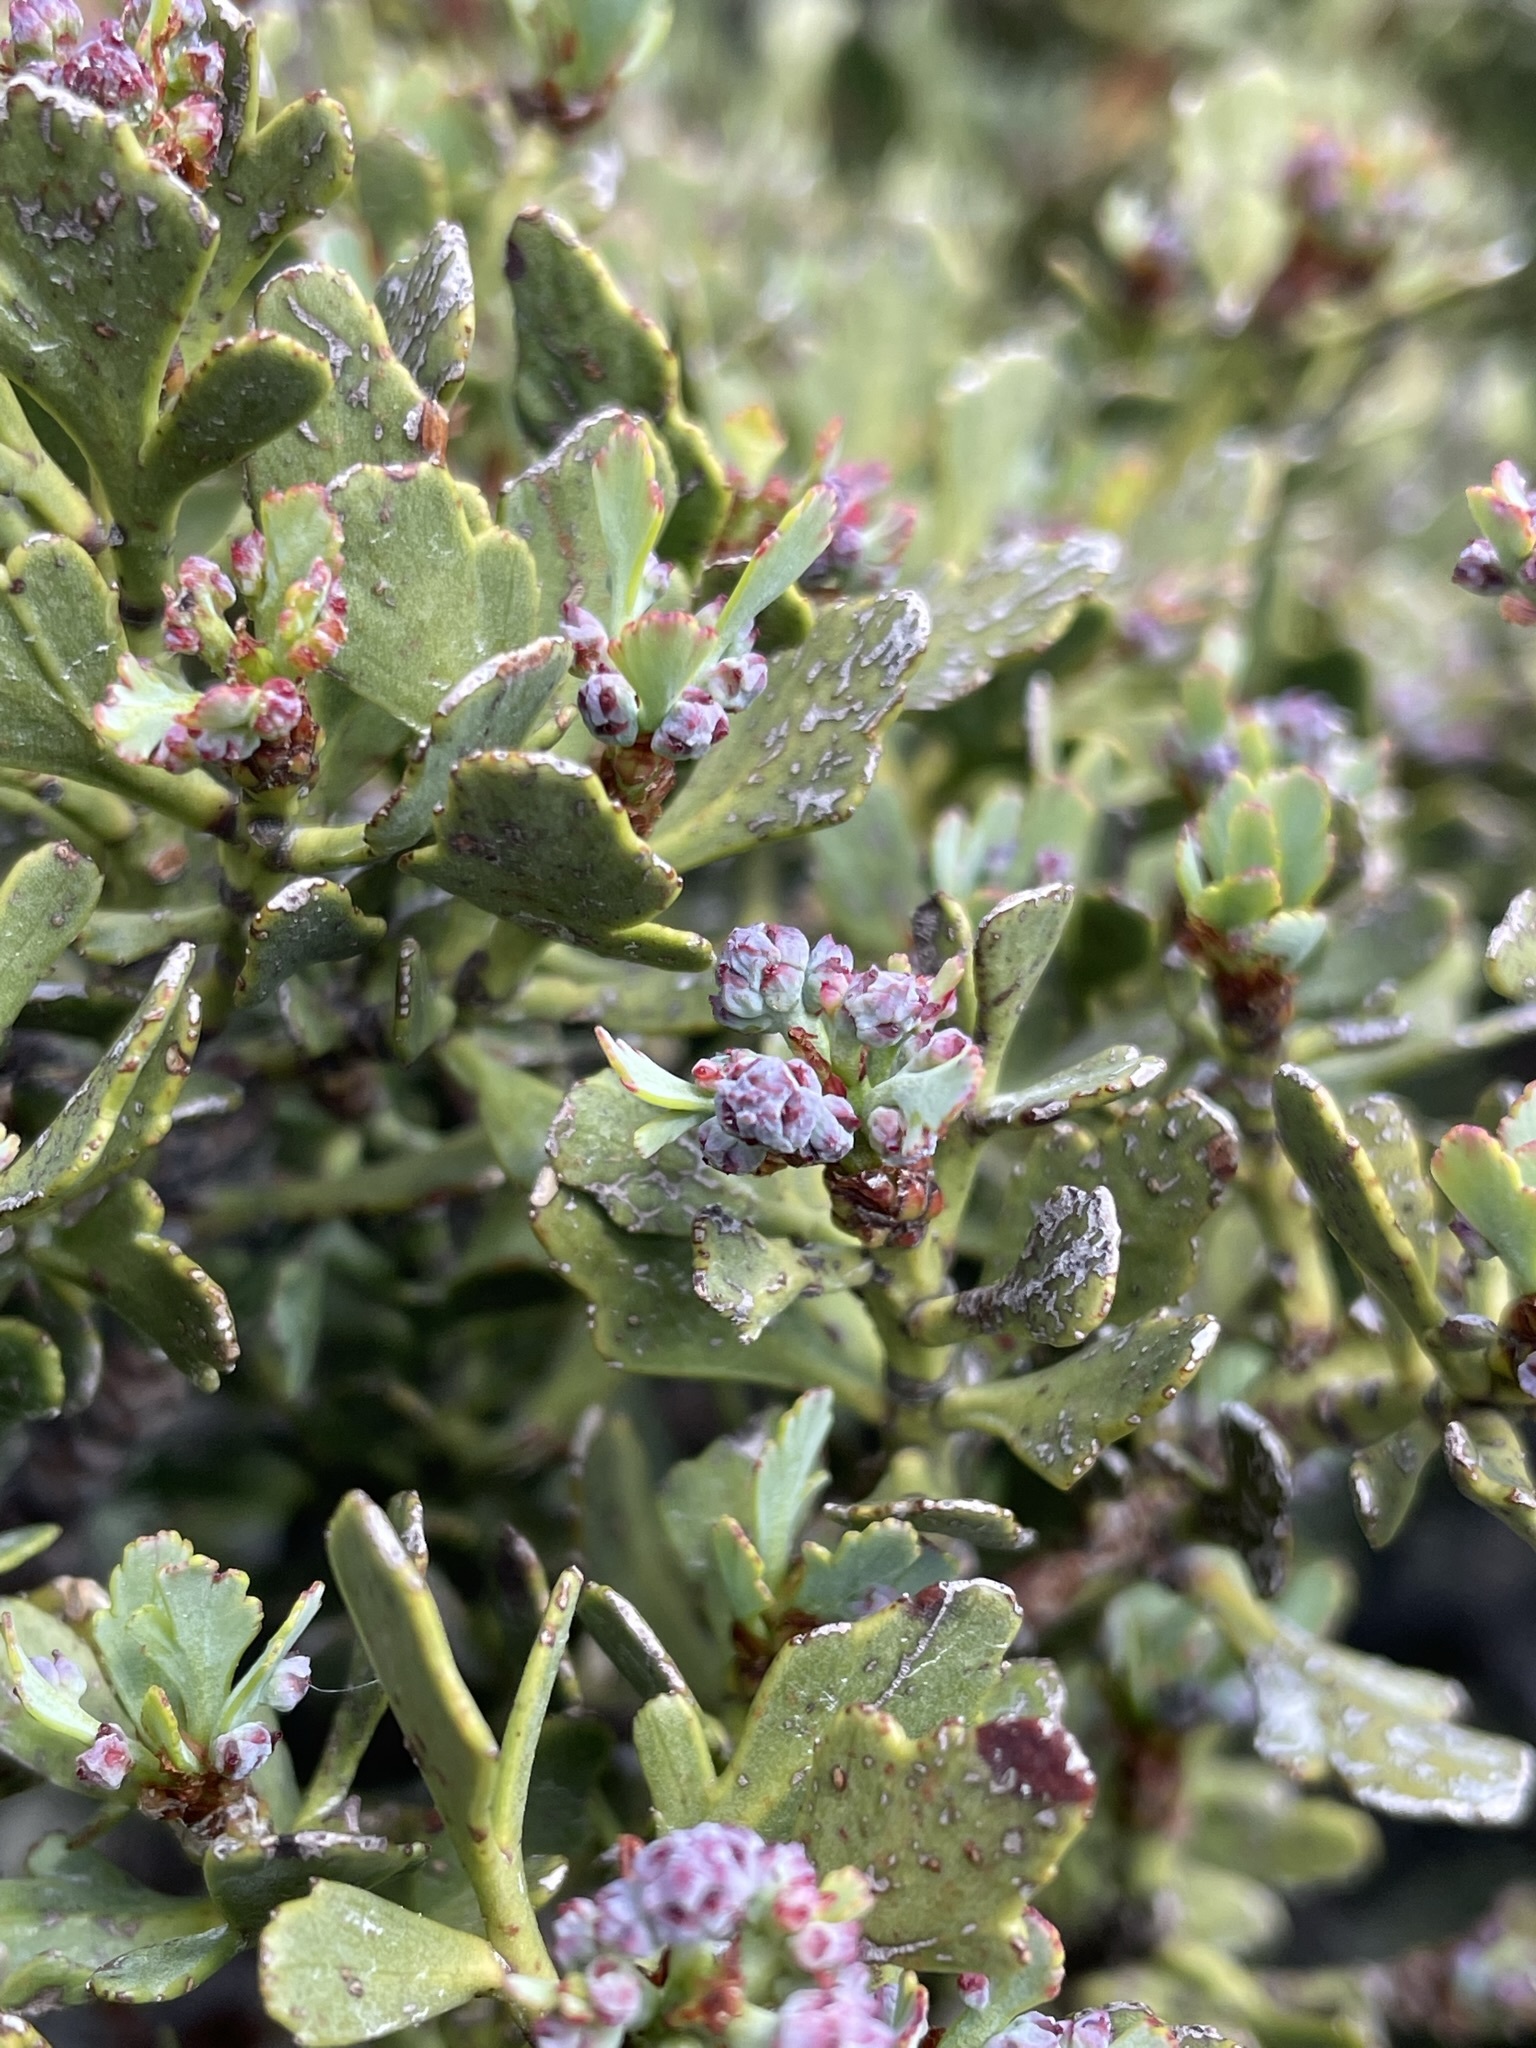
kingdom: Plantae
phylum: Tracheophyta
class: Pinopsida
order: Pinales
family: Phyllocladaceae
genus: Phyllocladus
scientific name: Phyllocladus trichomanoides
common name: Celery pine
